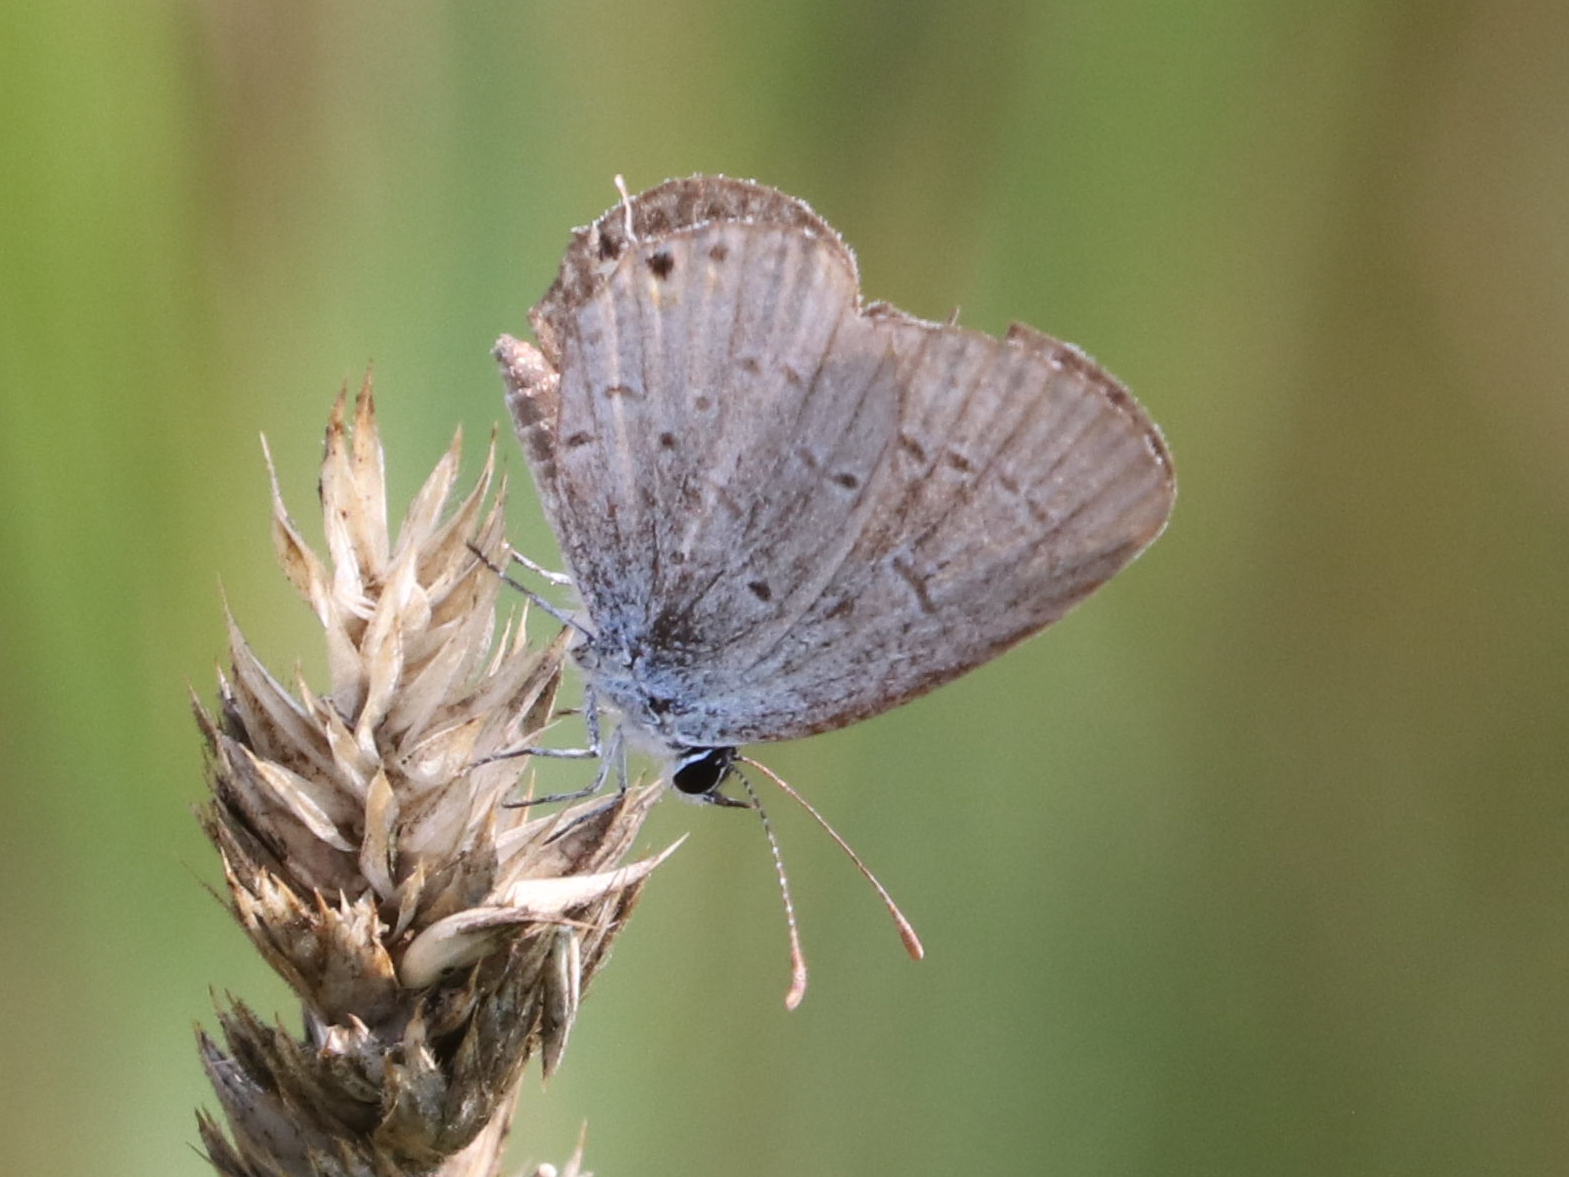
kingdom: Animalia
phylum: Arthropoda
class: Insecta
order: Lepidoptera
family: Lycaenidae
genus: Elkalyce
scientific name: Elkalyce comyntas
